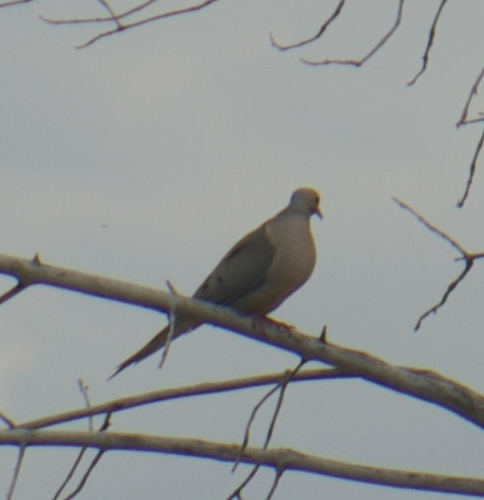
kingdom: Animalia
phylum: Chordata
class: Aves
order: Columbiformes
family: Columbidae
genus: Zenaida
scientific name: Zenaida macroura
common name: Mourning dove
